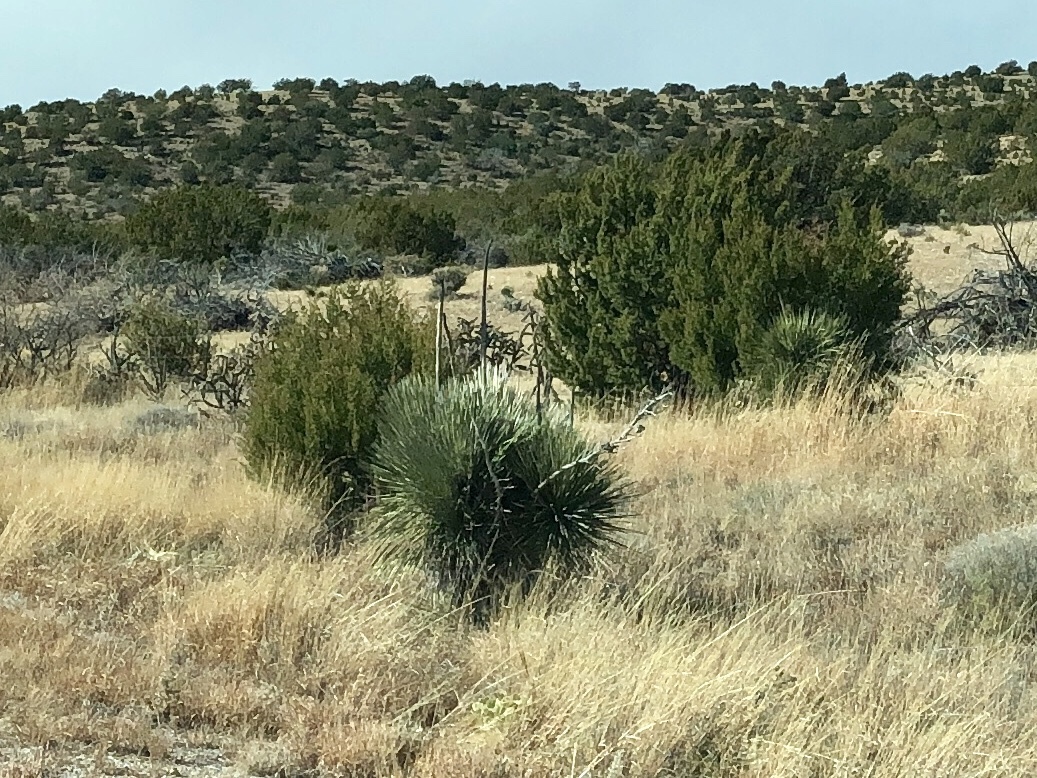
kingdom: Plantae
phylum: Tracheophyta
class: Liliopsida
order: Asparagales
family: Asparagaceae
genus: Yucca
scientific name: Yucca elata
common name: Palmella
